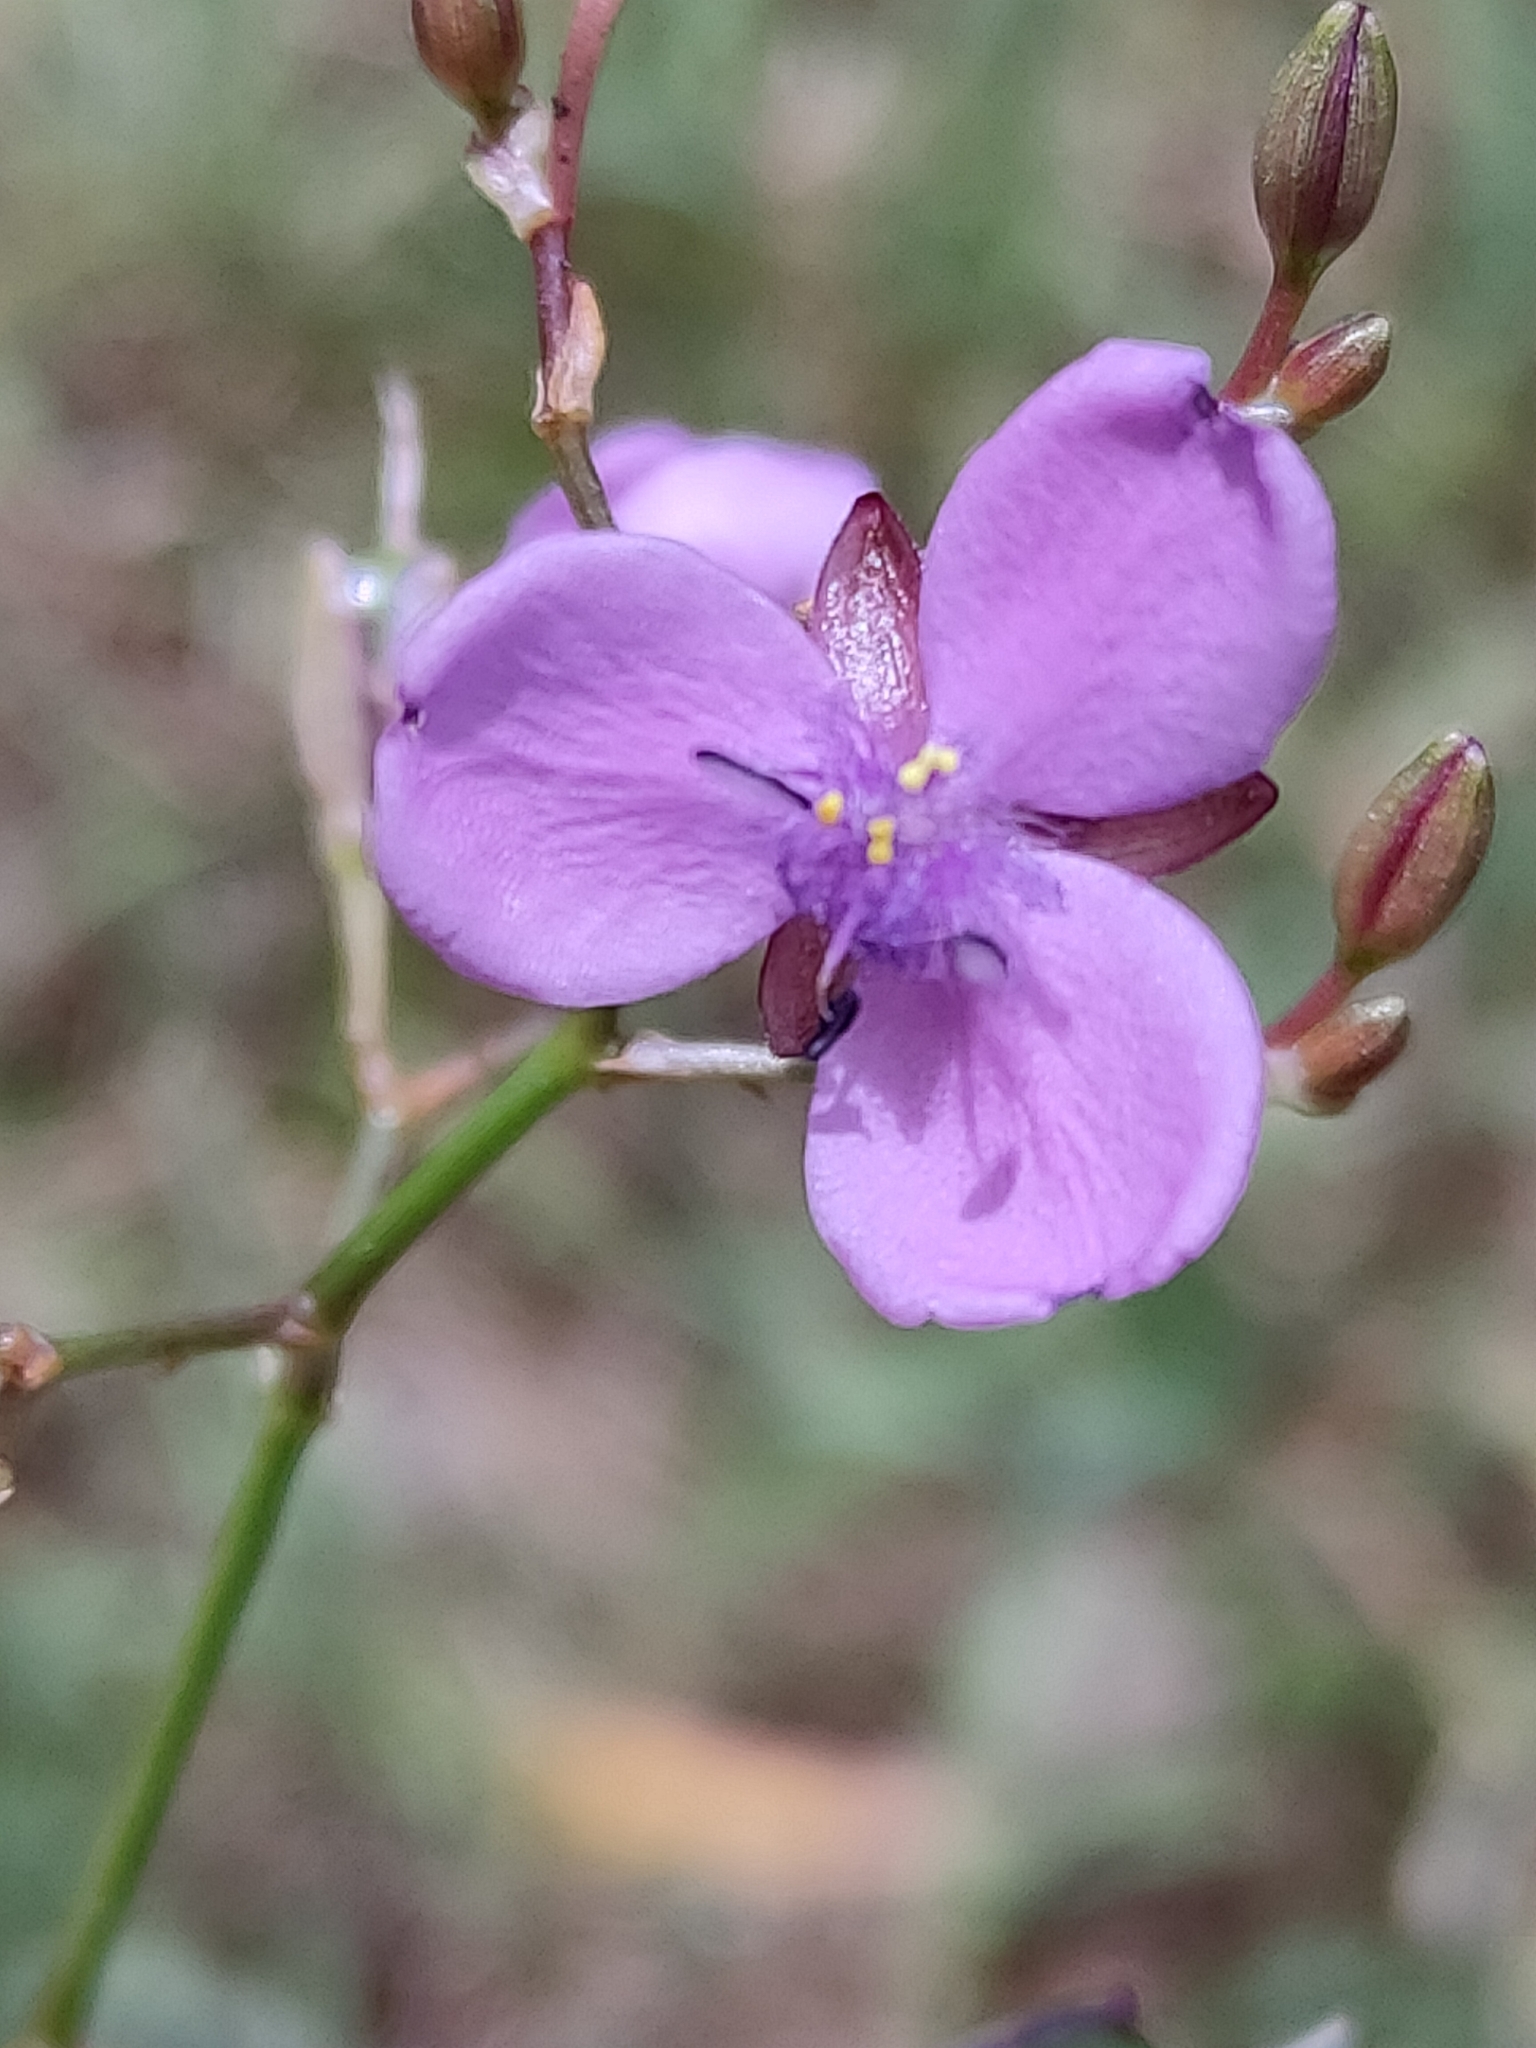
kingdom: Plantae
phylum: Tracheophyta
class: Liliopsida
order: Commelinales
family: Commelinaceae
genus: Murdannia
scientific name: Murdannia graminea
